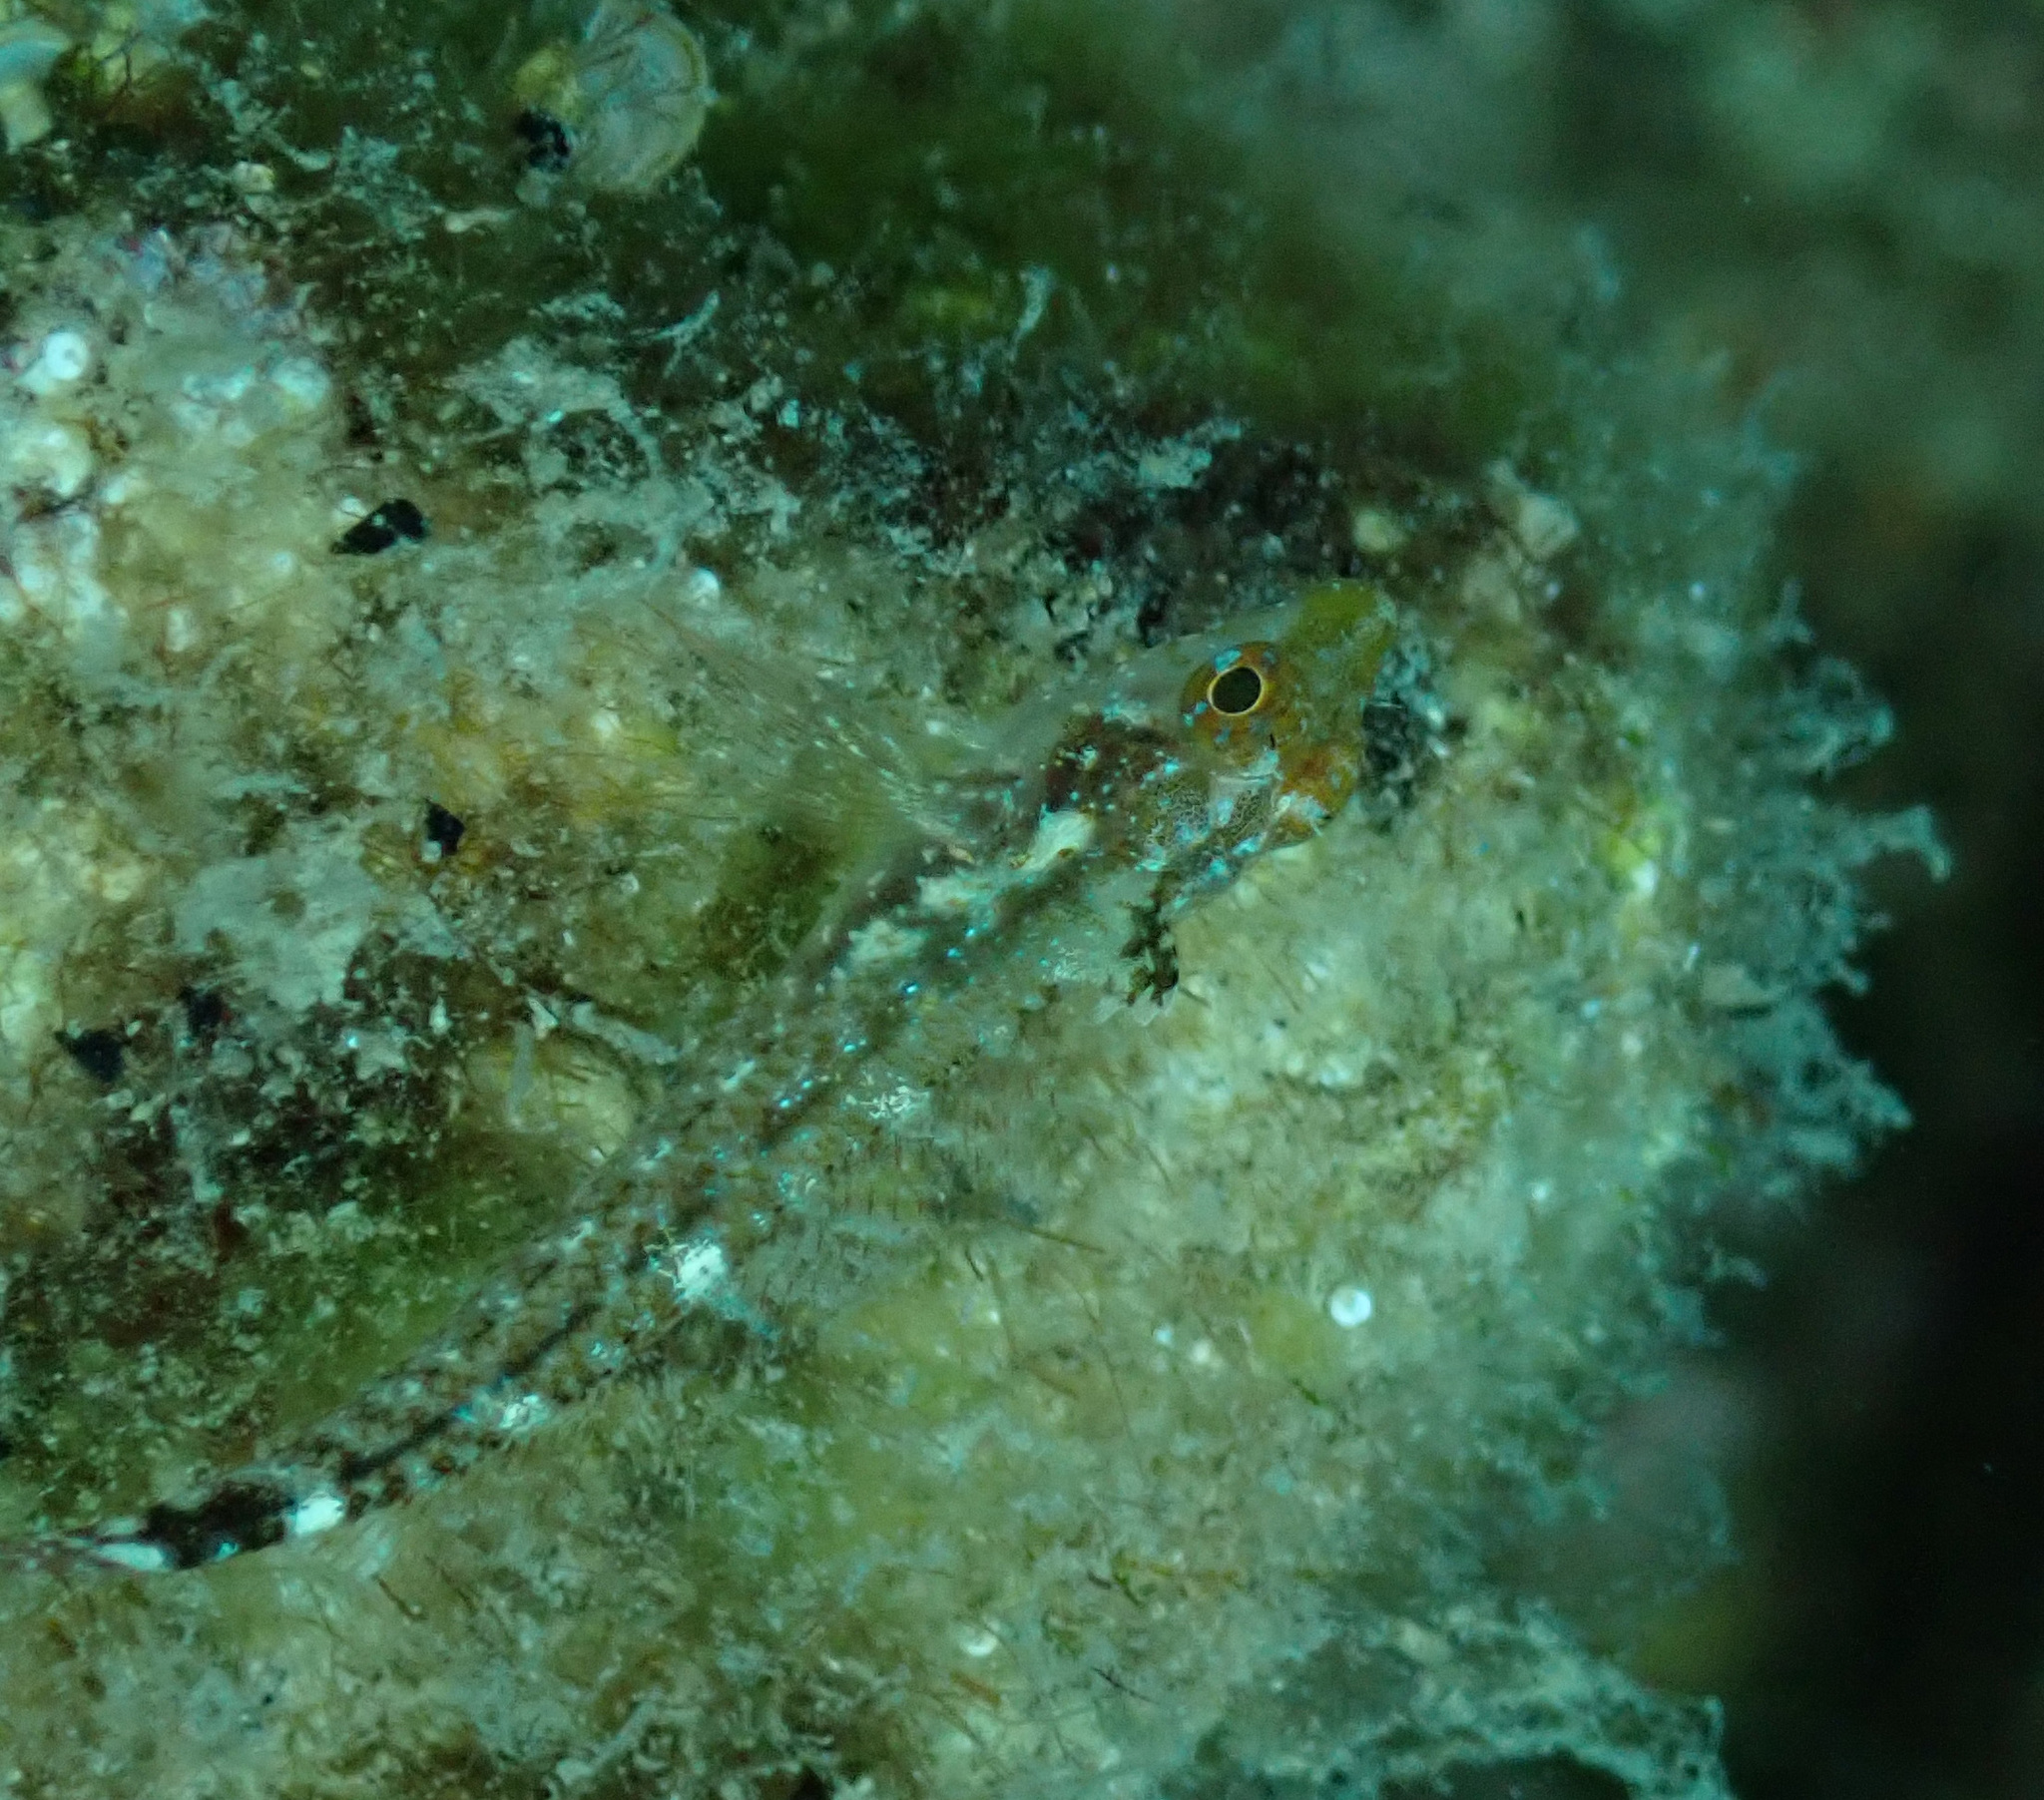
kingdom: Animalia
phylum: Chordata
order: Perciformes
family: Tripterygiidae
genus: Tripterygion
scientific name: Tripterygion delaisi
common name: Black-face blenny
